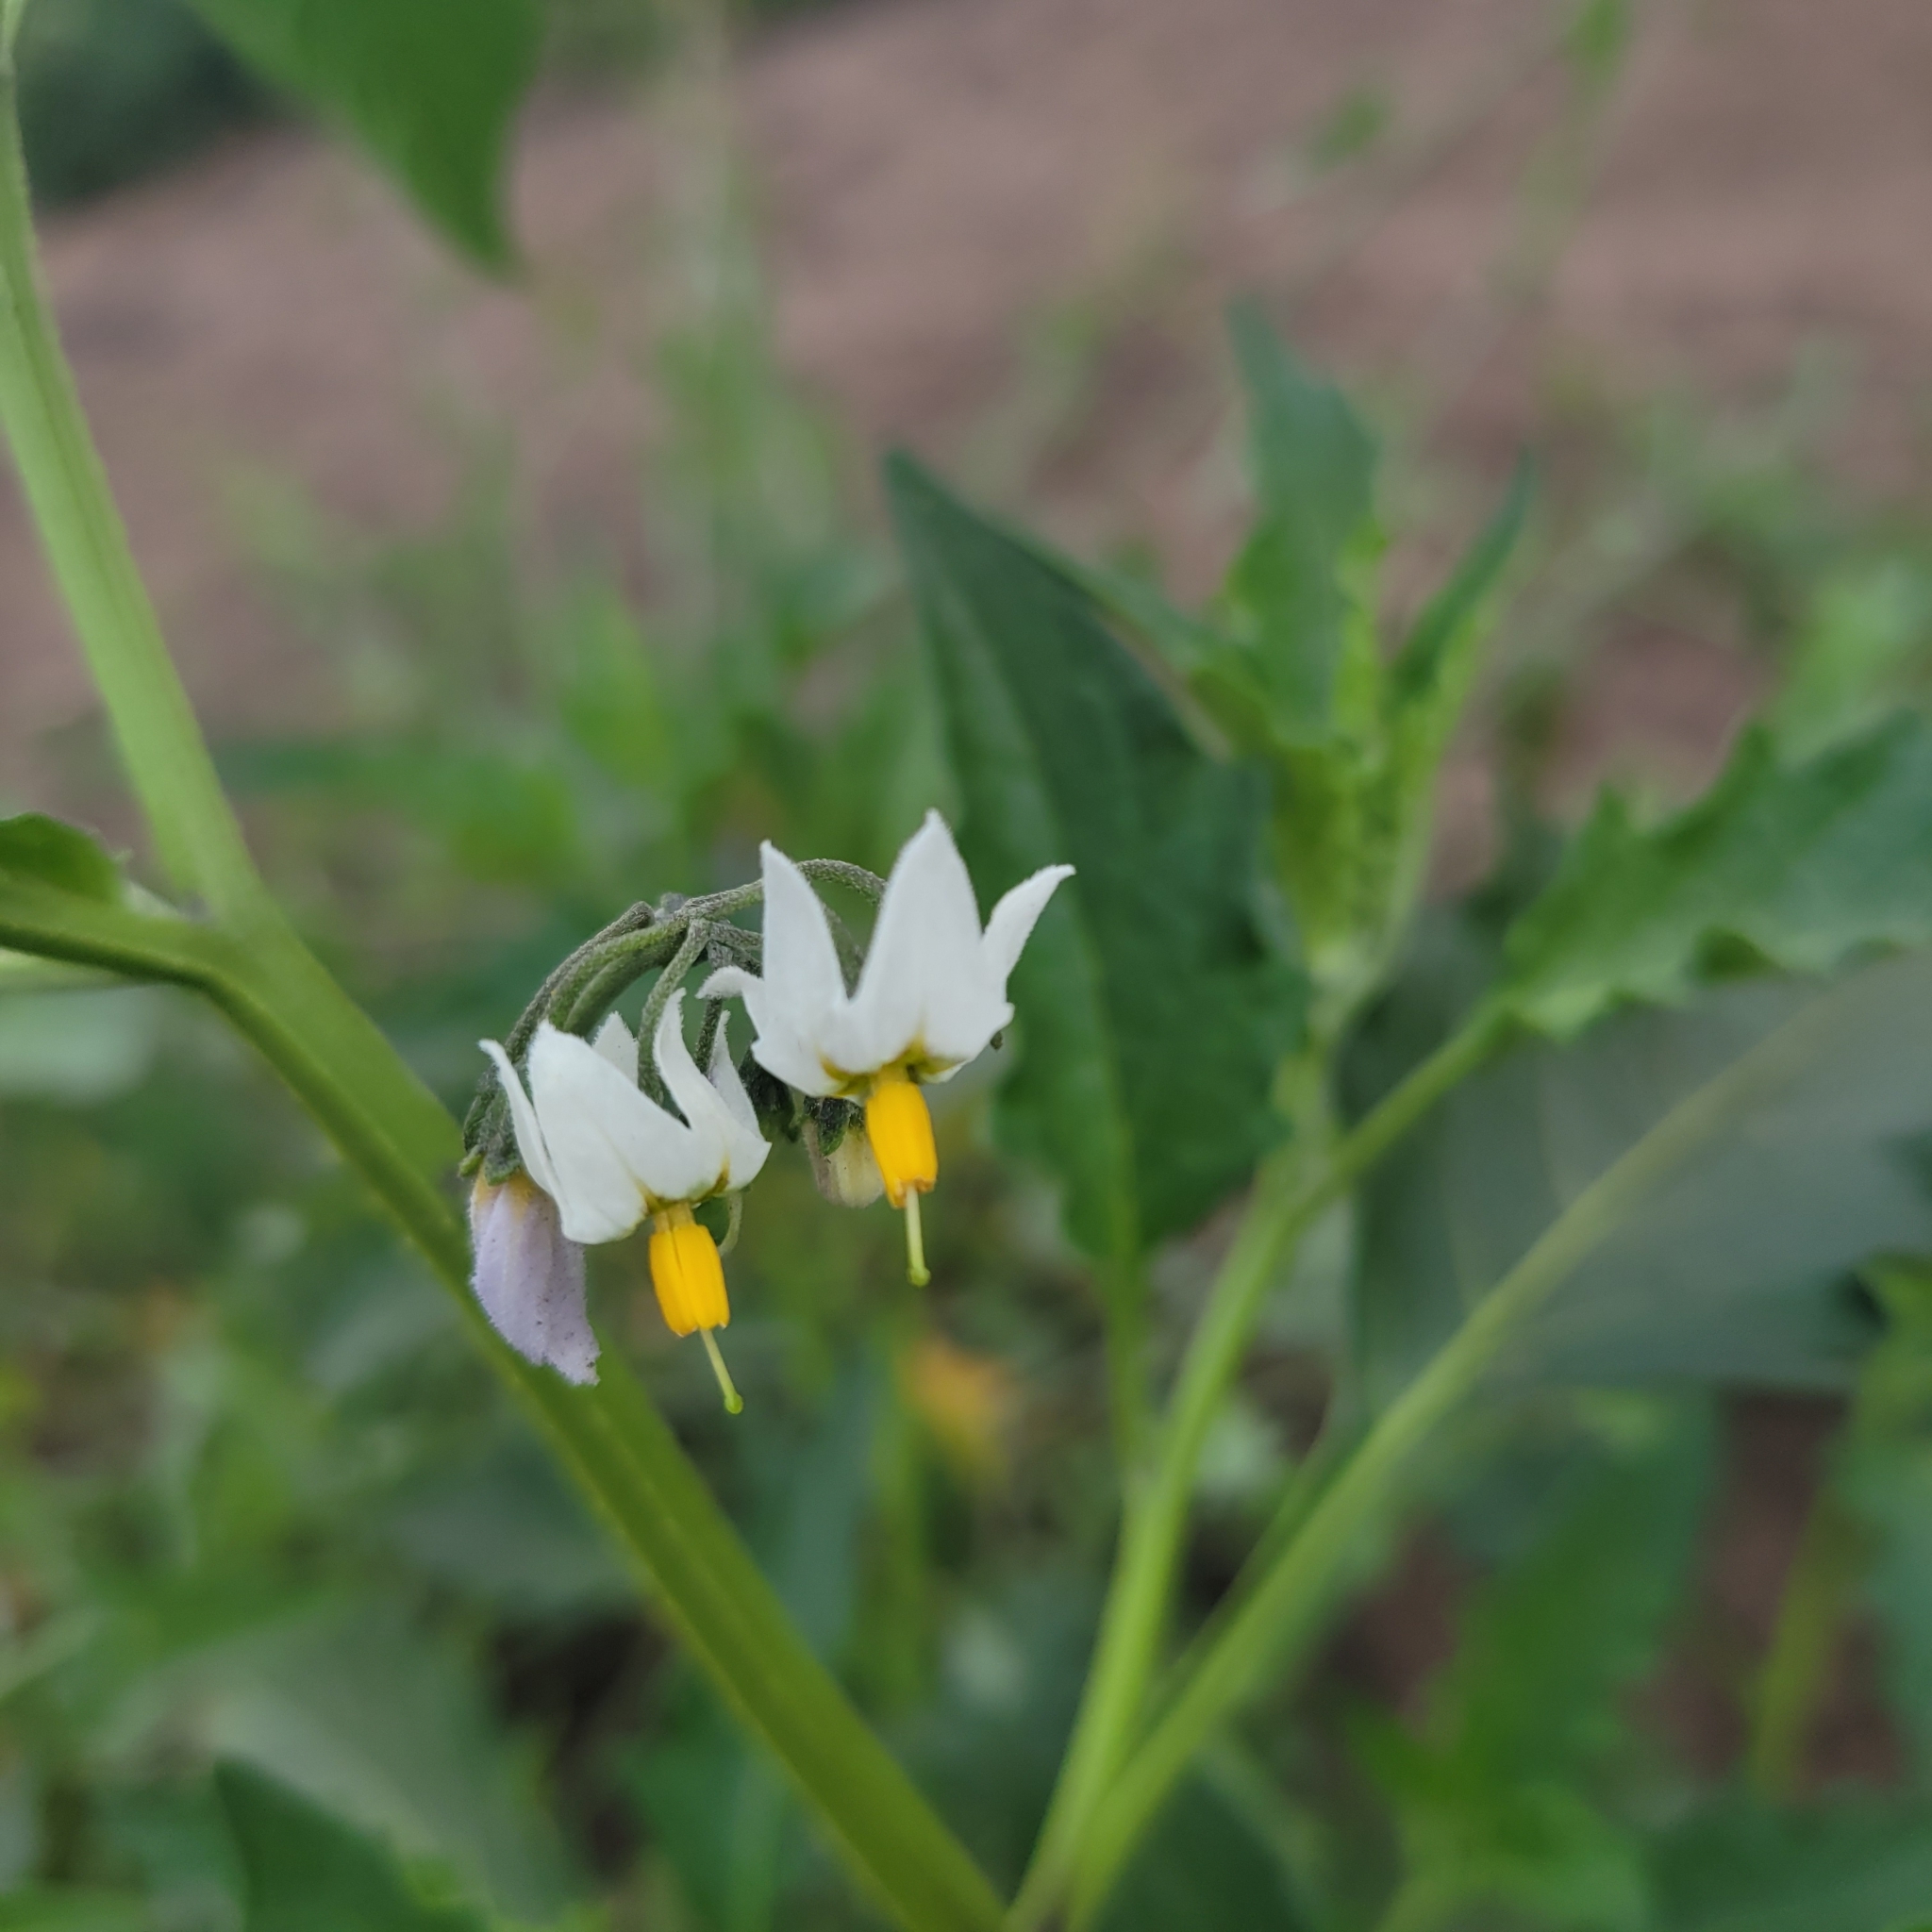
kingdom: Plantae
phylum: Tracheophyta
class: Magnoliopsida
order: Solanales
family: Solanaceae
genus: Solanum
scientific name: Solanum douglasii
